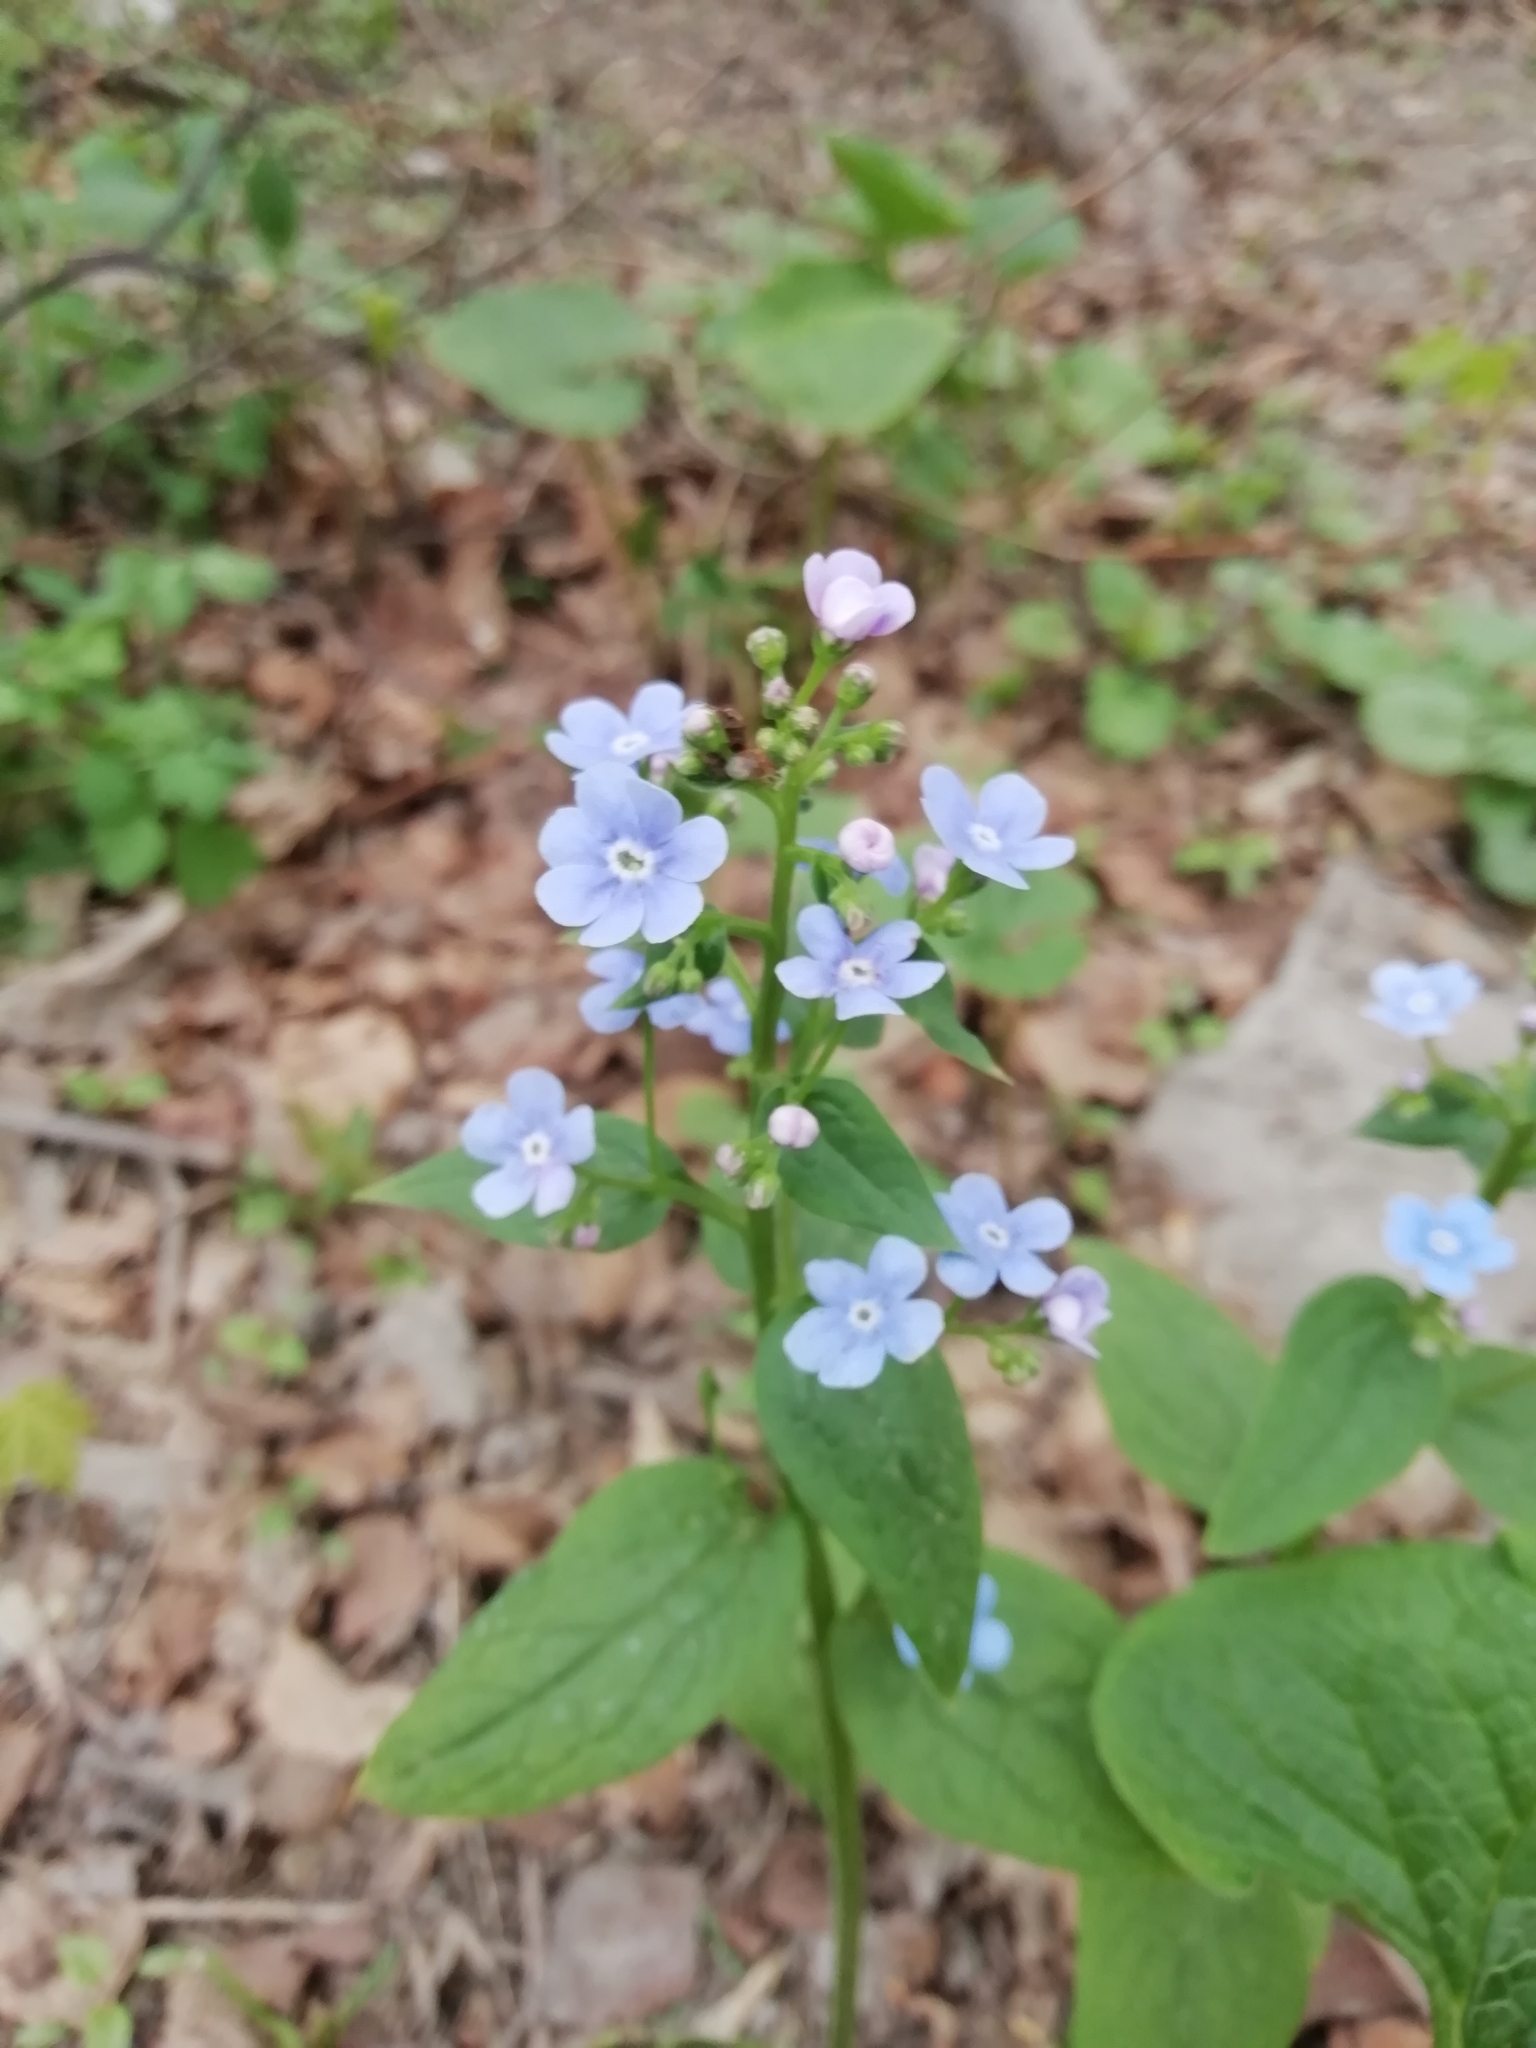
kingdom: Plantae
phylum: Tracheophyta
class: Magnoliopsida
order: Boraginales
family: Boraginaceae
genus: Brunnera
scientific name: Brunnera sibirica
